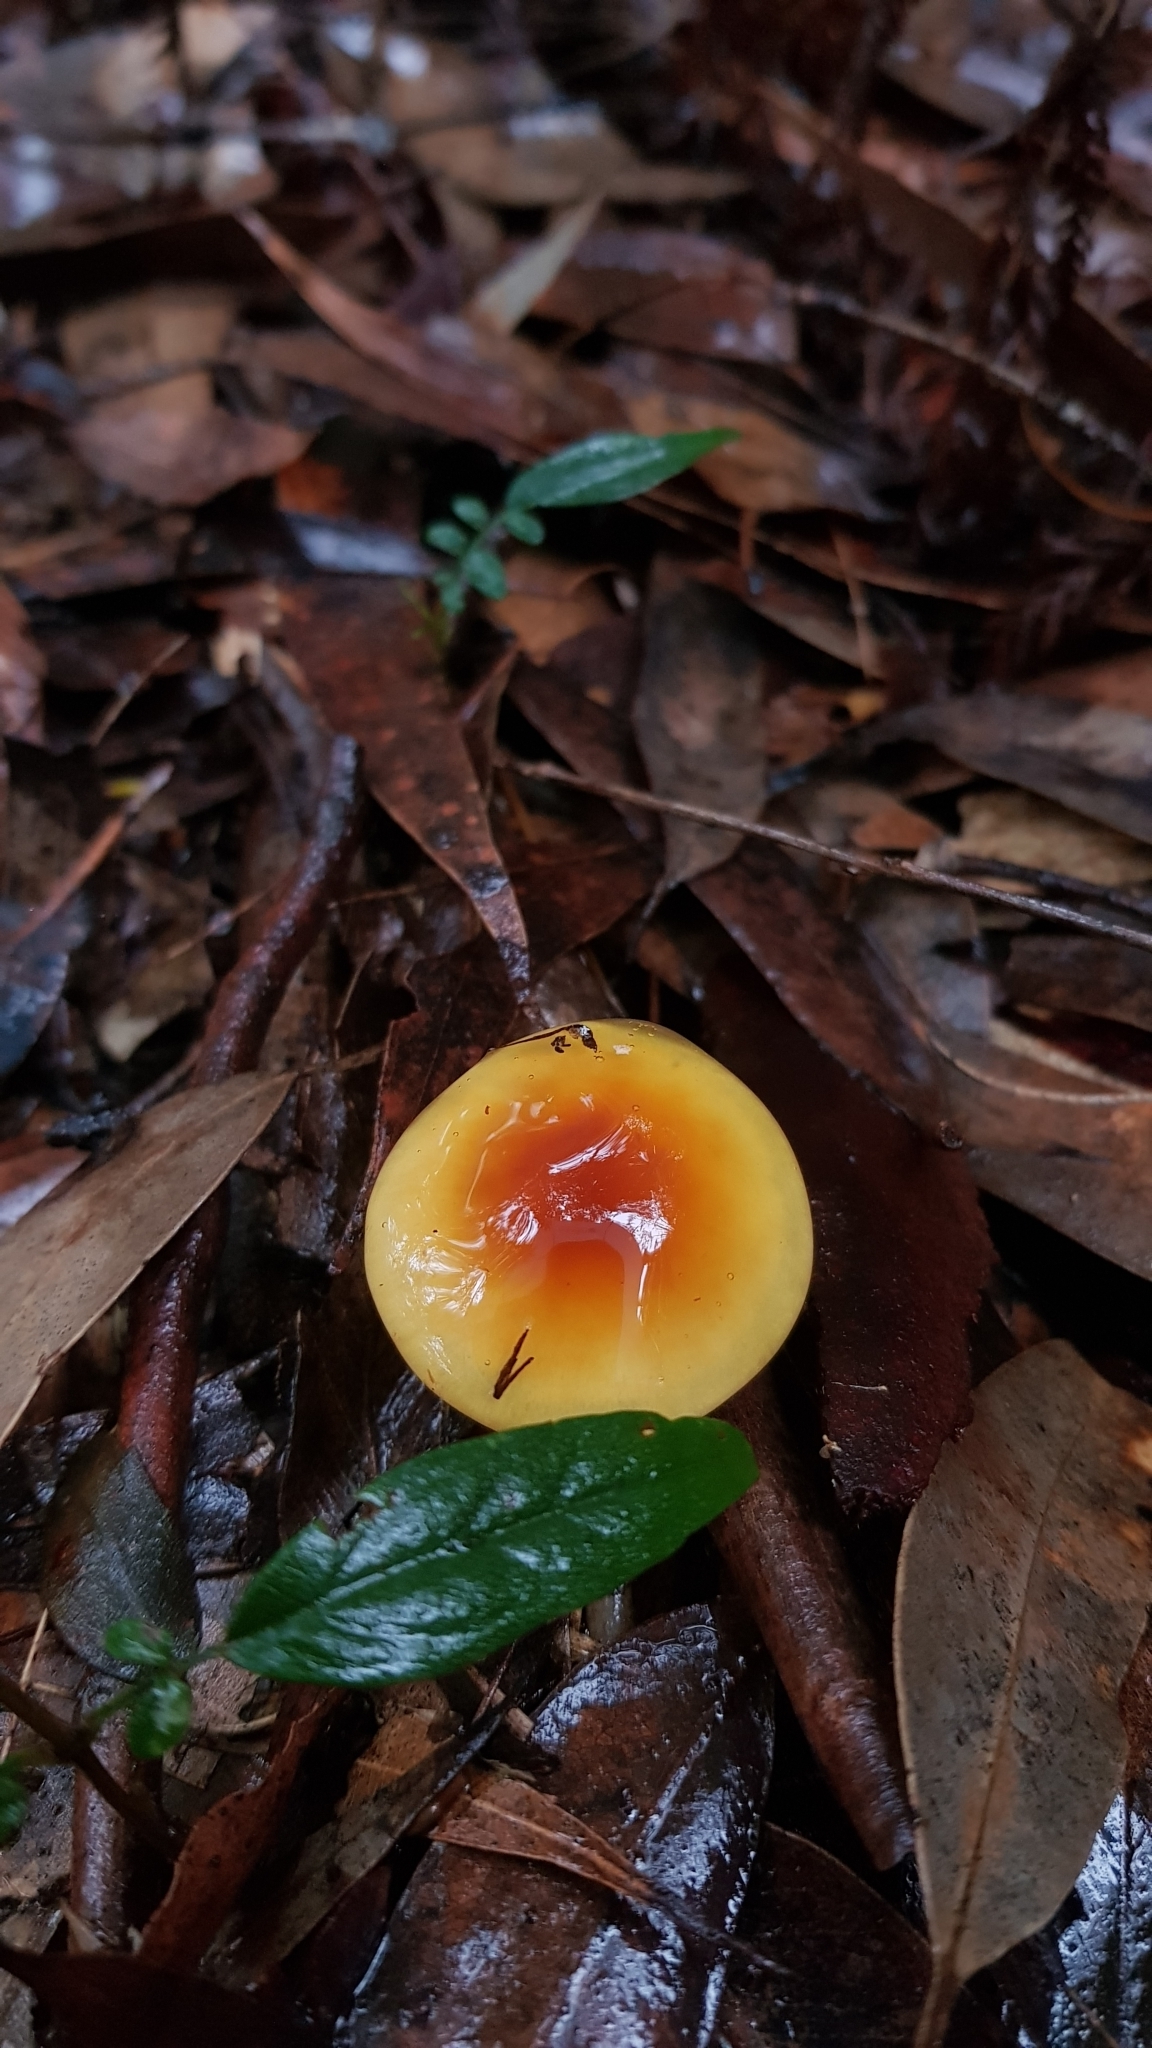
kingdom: Fungi
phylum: Basidiomycota
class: Agaricomycetes
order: Agaricales
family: Cortinariaceae
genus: Cortinarius
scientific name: Cortinarius sinapicolor
